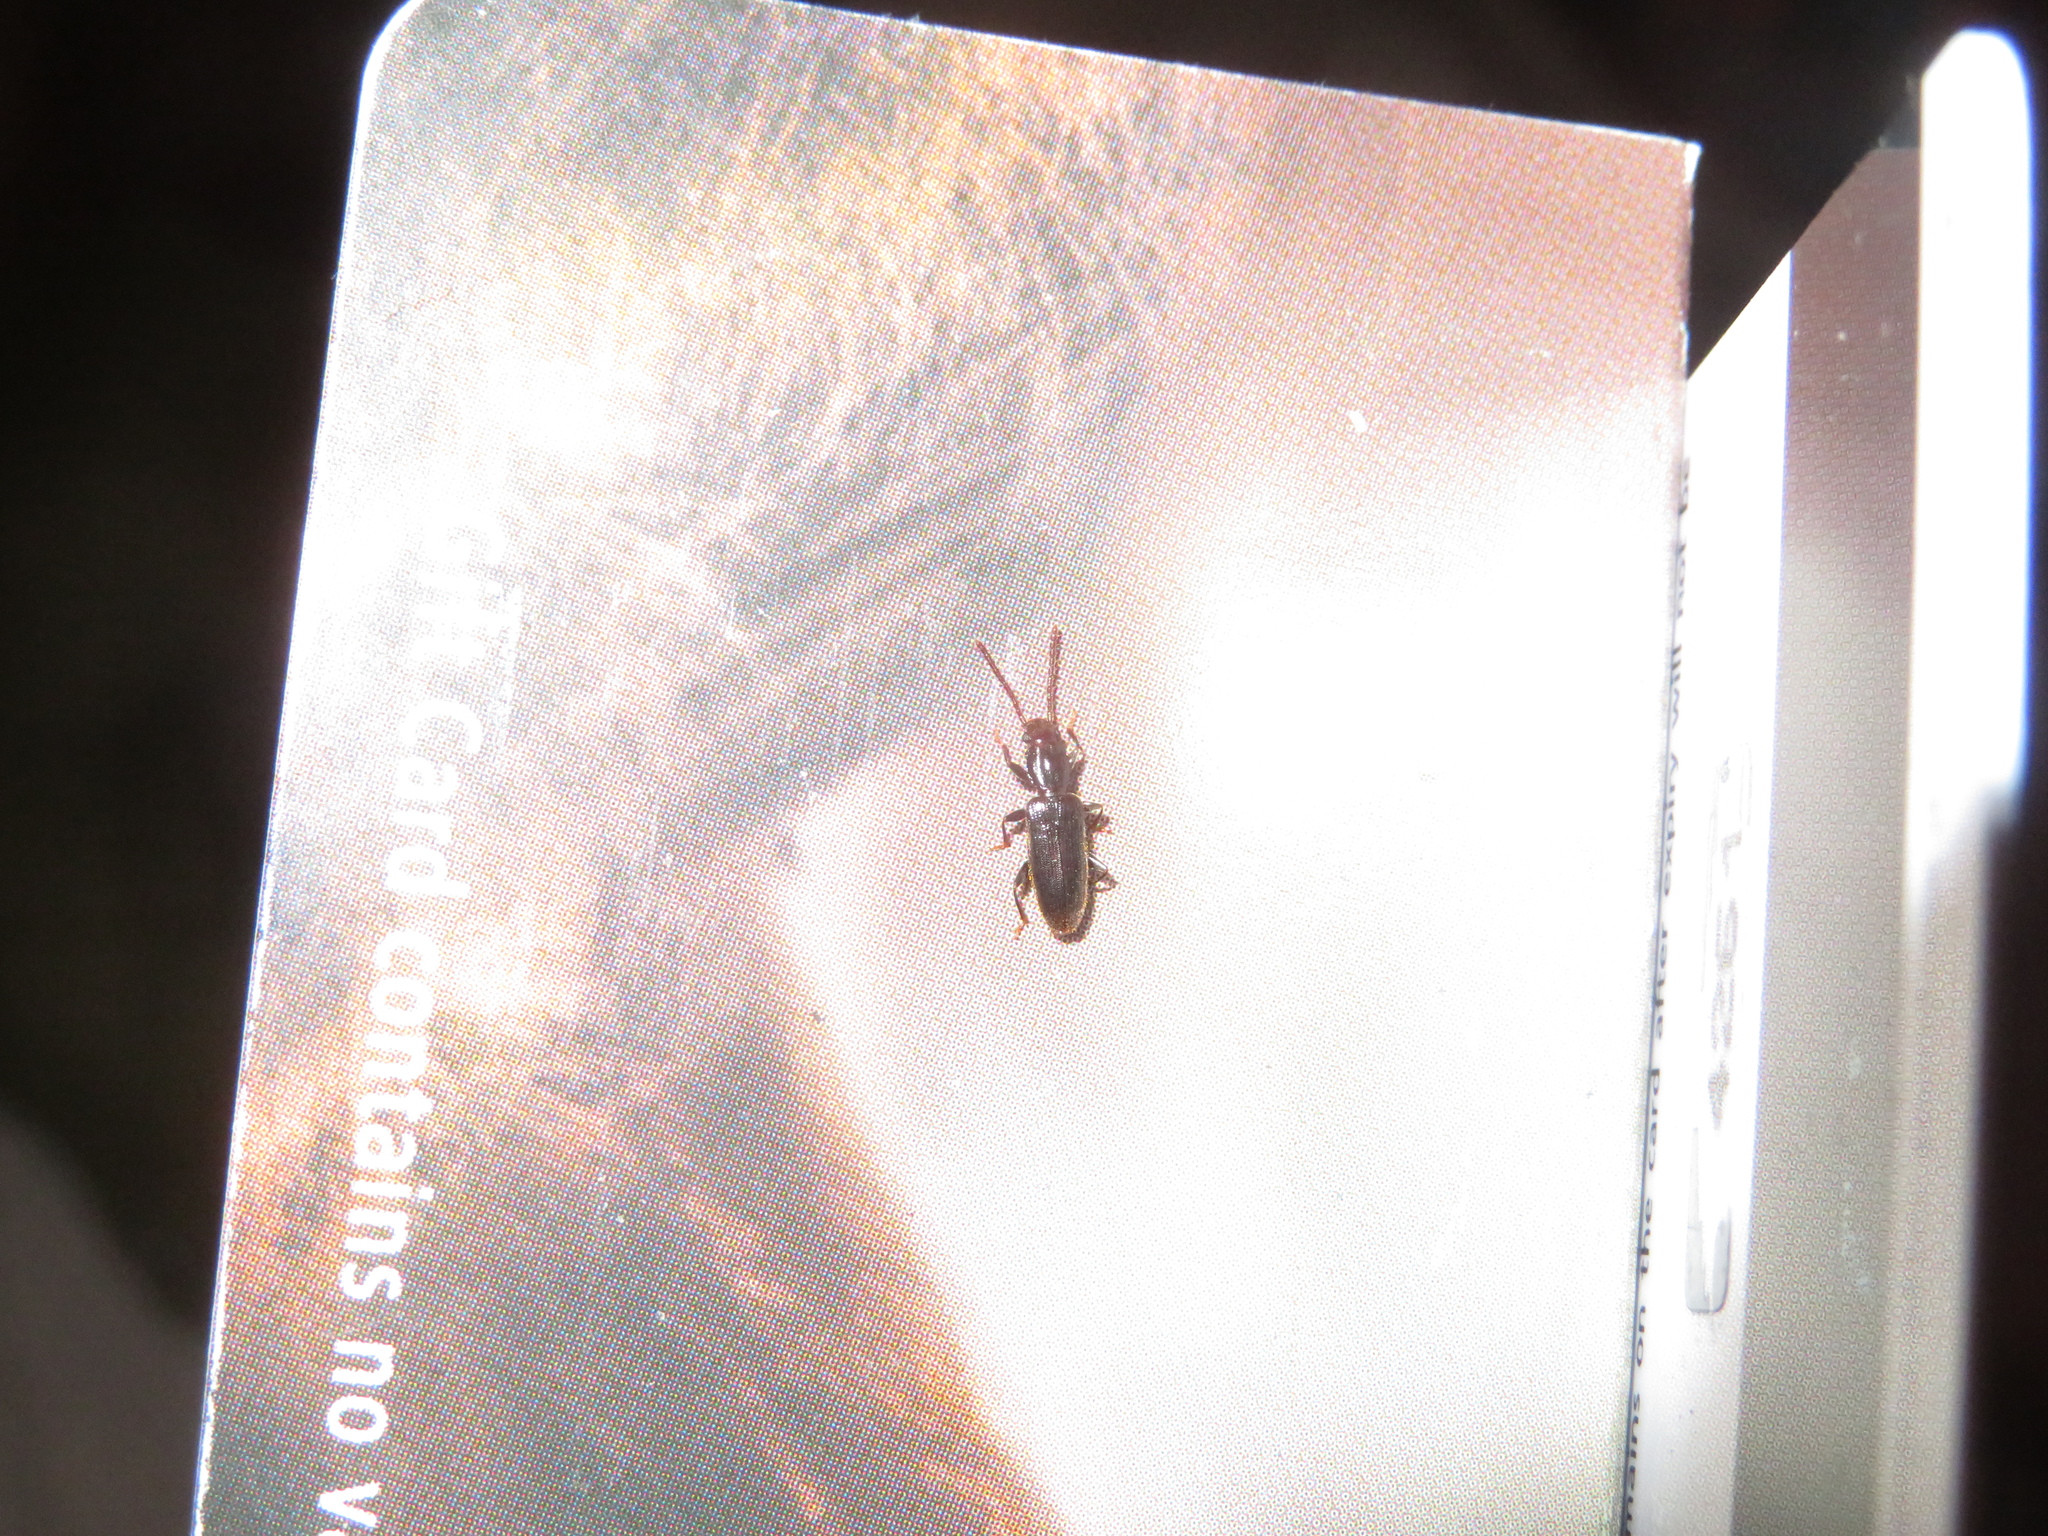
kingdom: Animalia
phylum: Arthropoda
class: Insecta
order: Coleoptera
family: Silvanidae
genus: Cryptamorpha
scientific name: Cryptamorpha brevicornis
